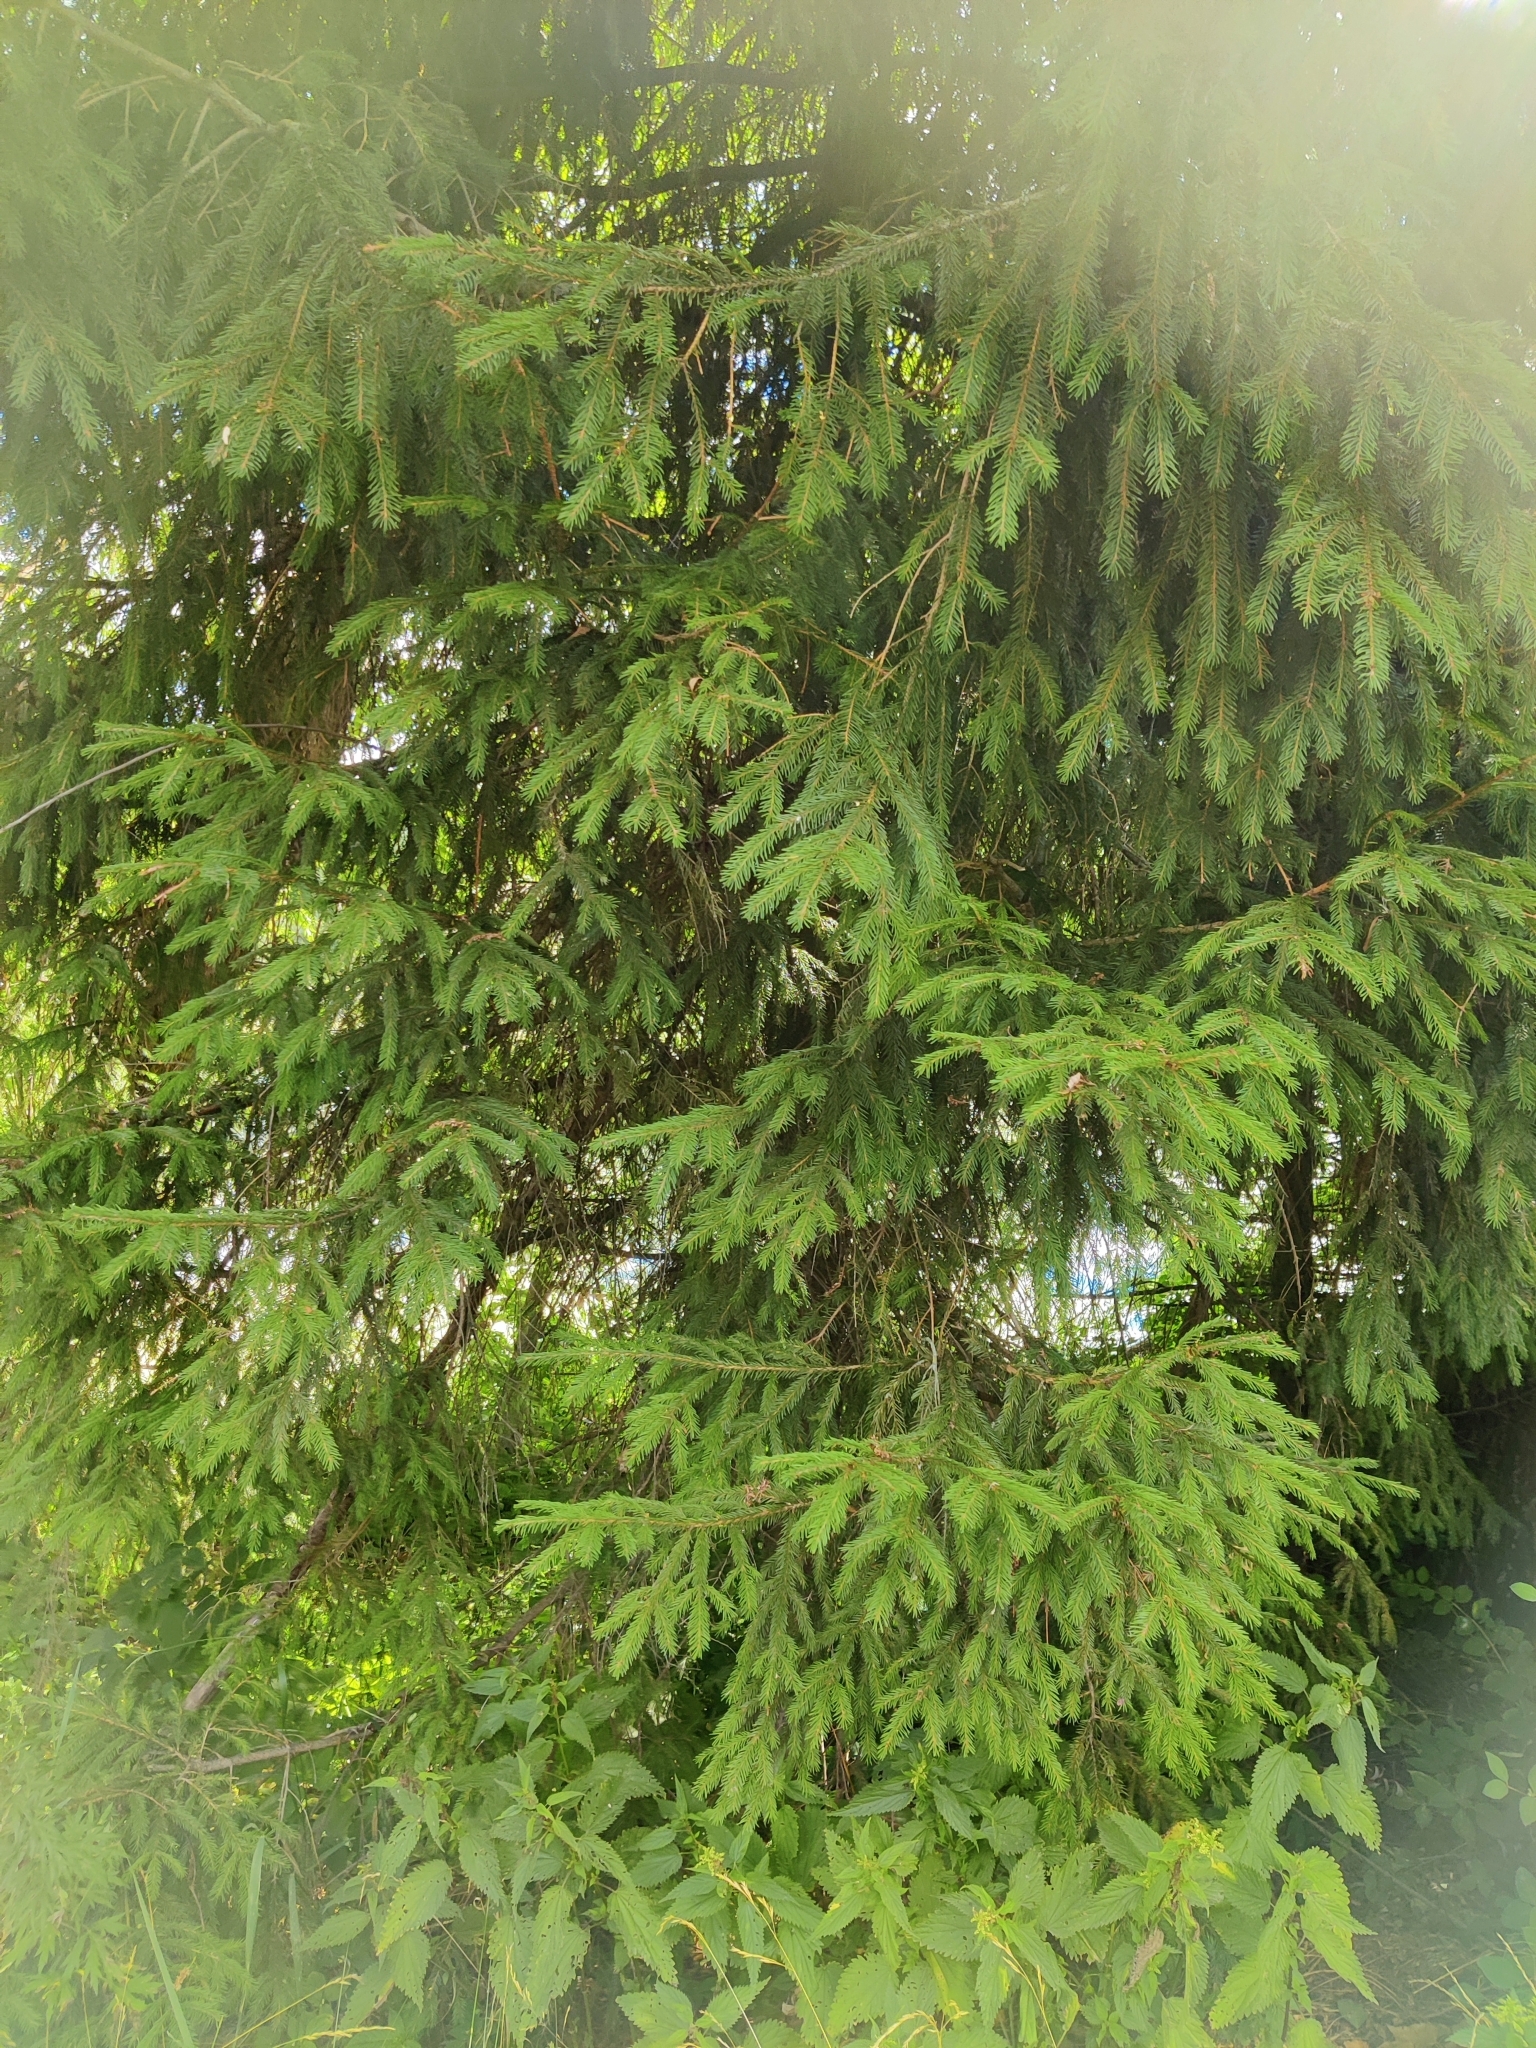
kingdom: Plantae
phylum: Tracheophyta
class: Pinopsida
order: Pinales
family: Pinaceae
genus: Picea
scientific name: Picea abies
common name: Norway spruce
